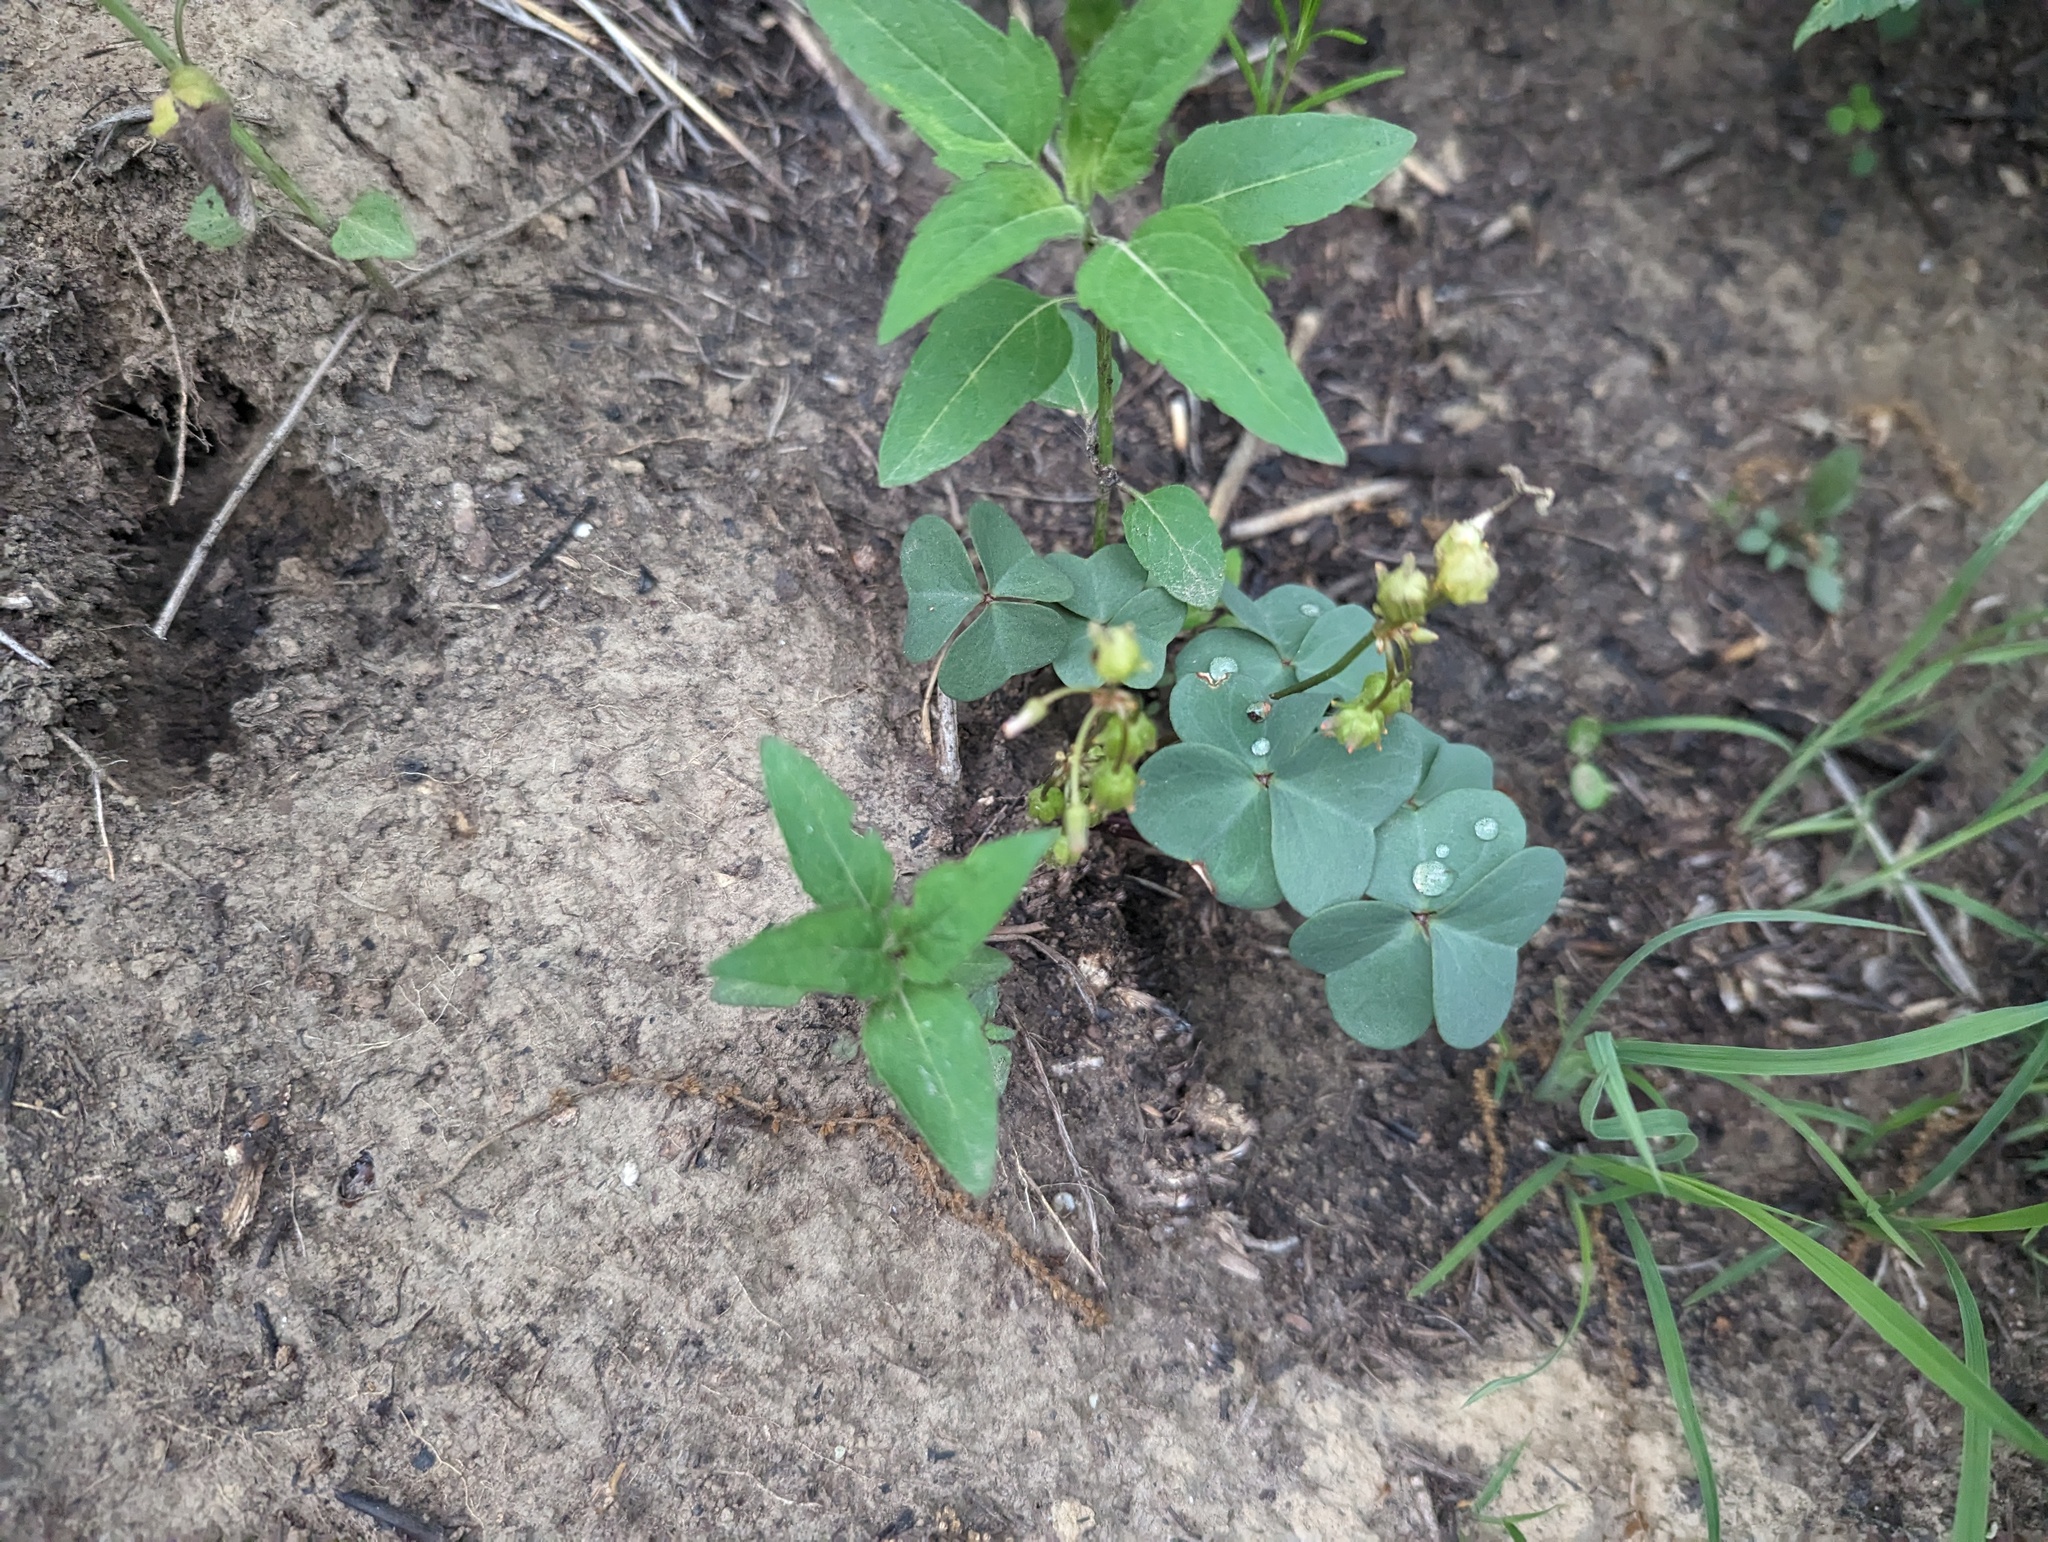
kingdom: Plantae
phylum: Tracheophyta
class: Magnoliopsida
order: Oxalidales
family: Oxalidaceae
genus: Oxalis
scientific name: Oxalis violacea
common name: Violet wood-sorrel
